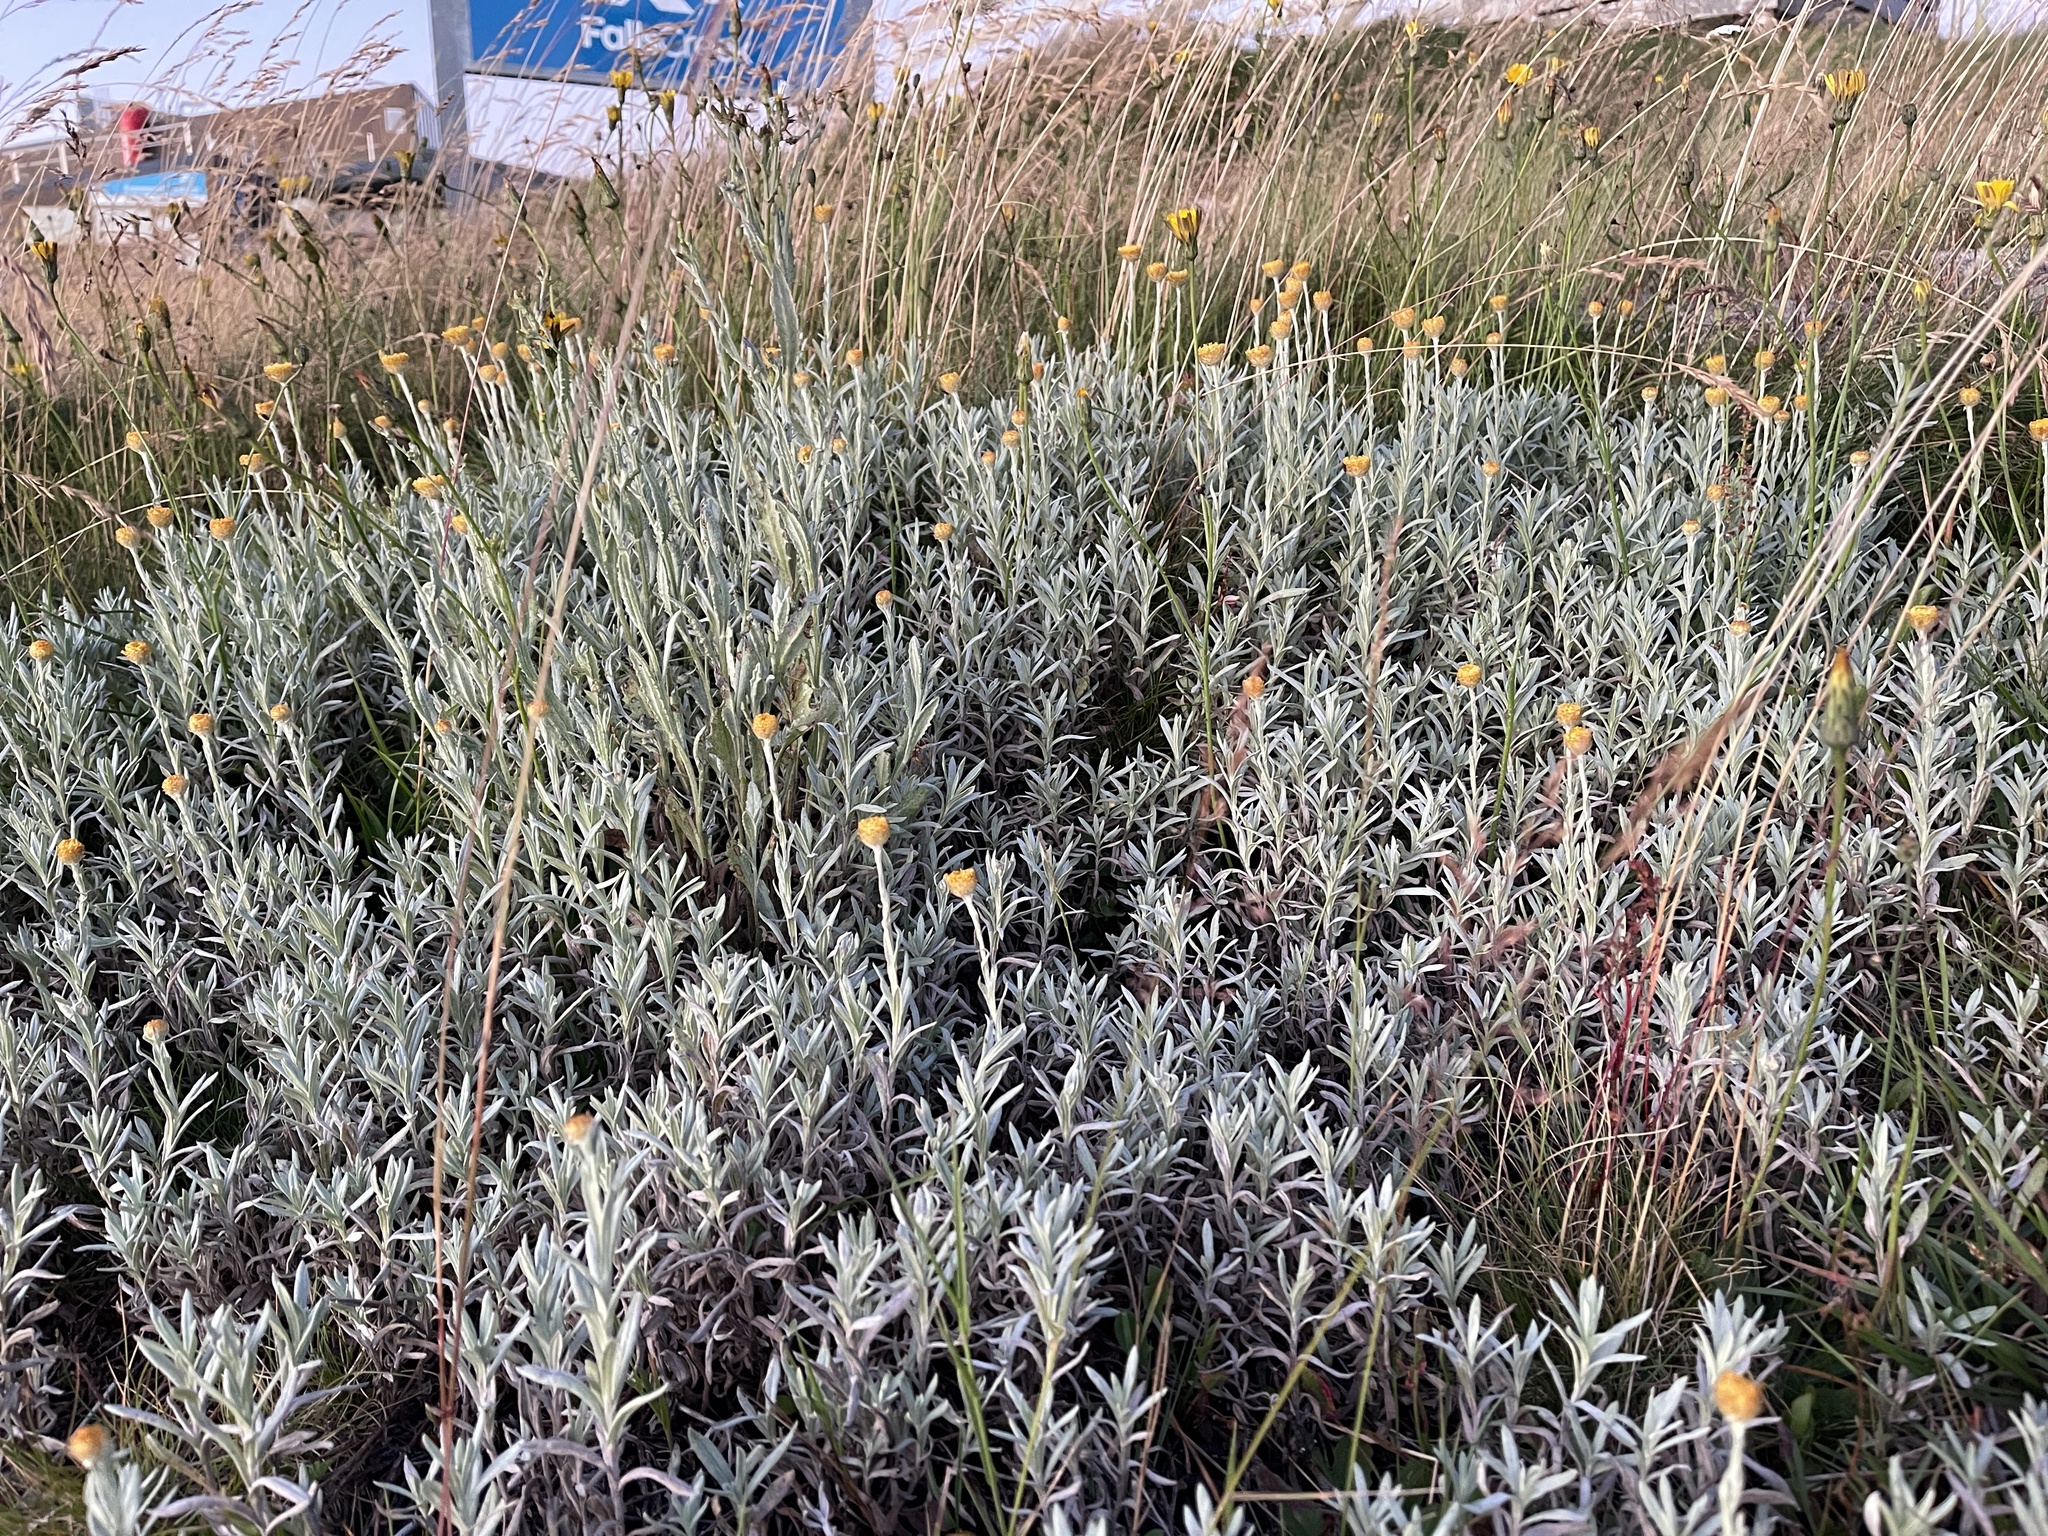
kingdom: Plantae
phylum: Tracheophyta
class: Magnoliopsida
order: Asterales
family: Asteraceae
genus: Coronidium
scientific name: Coronidium monticola
